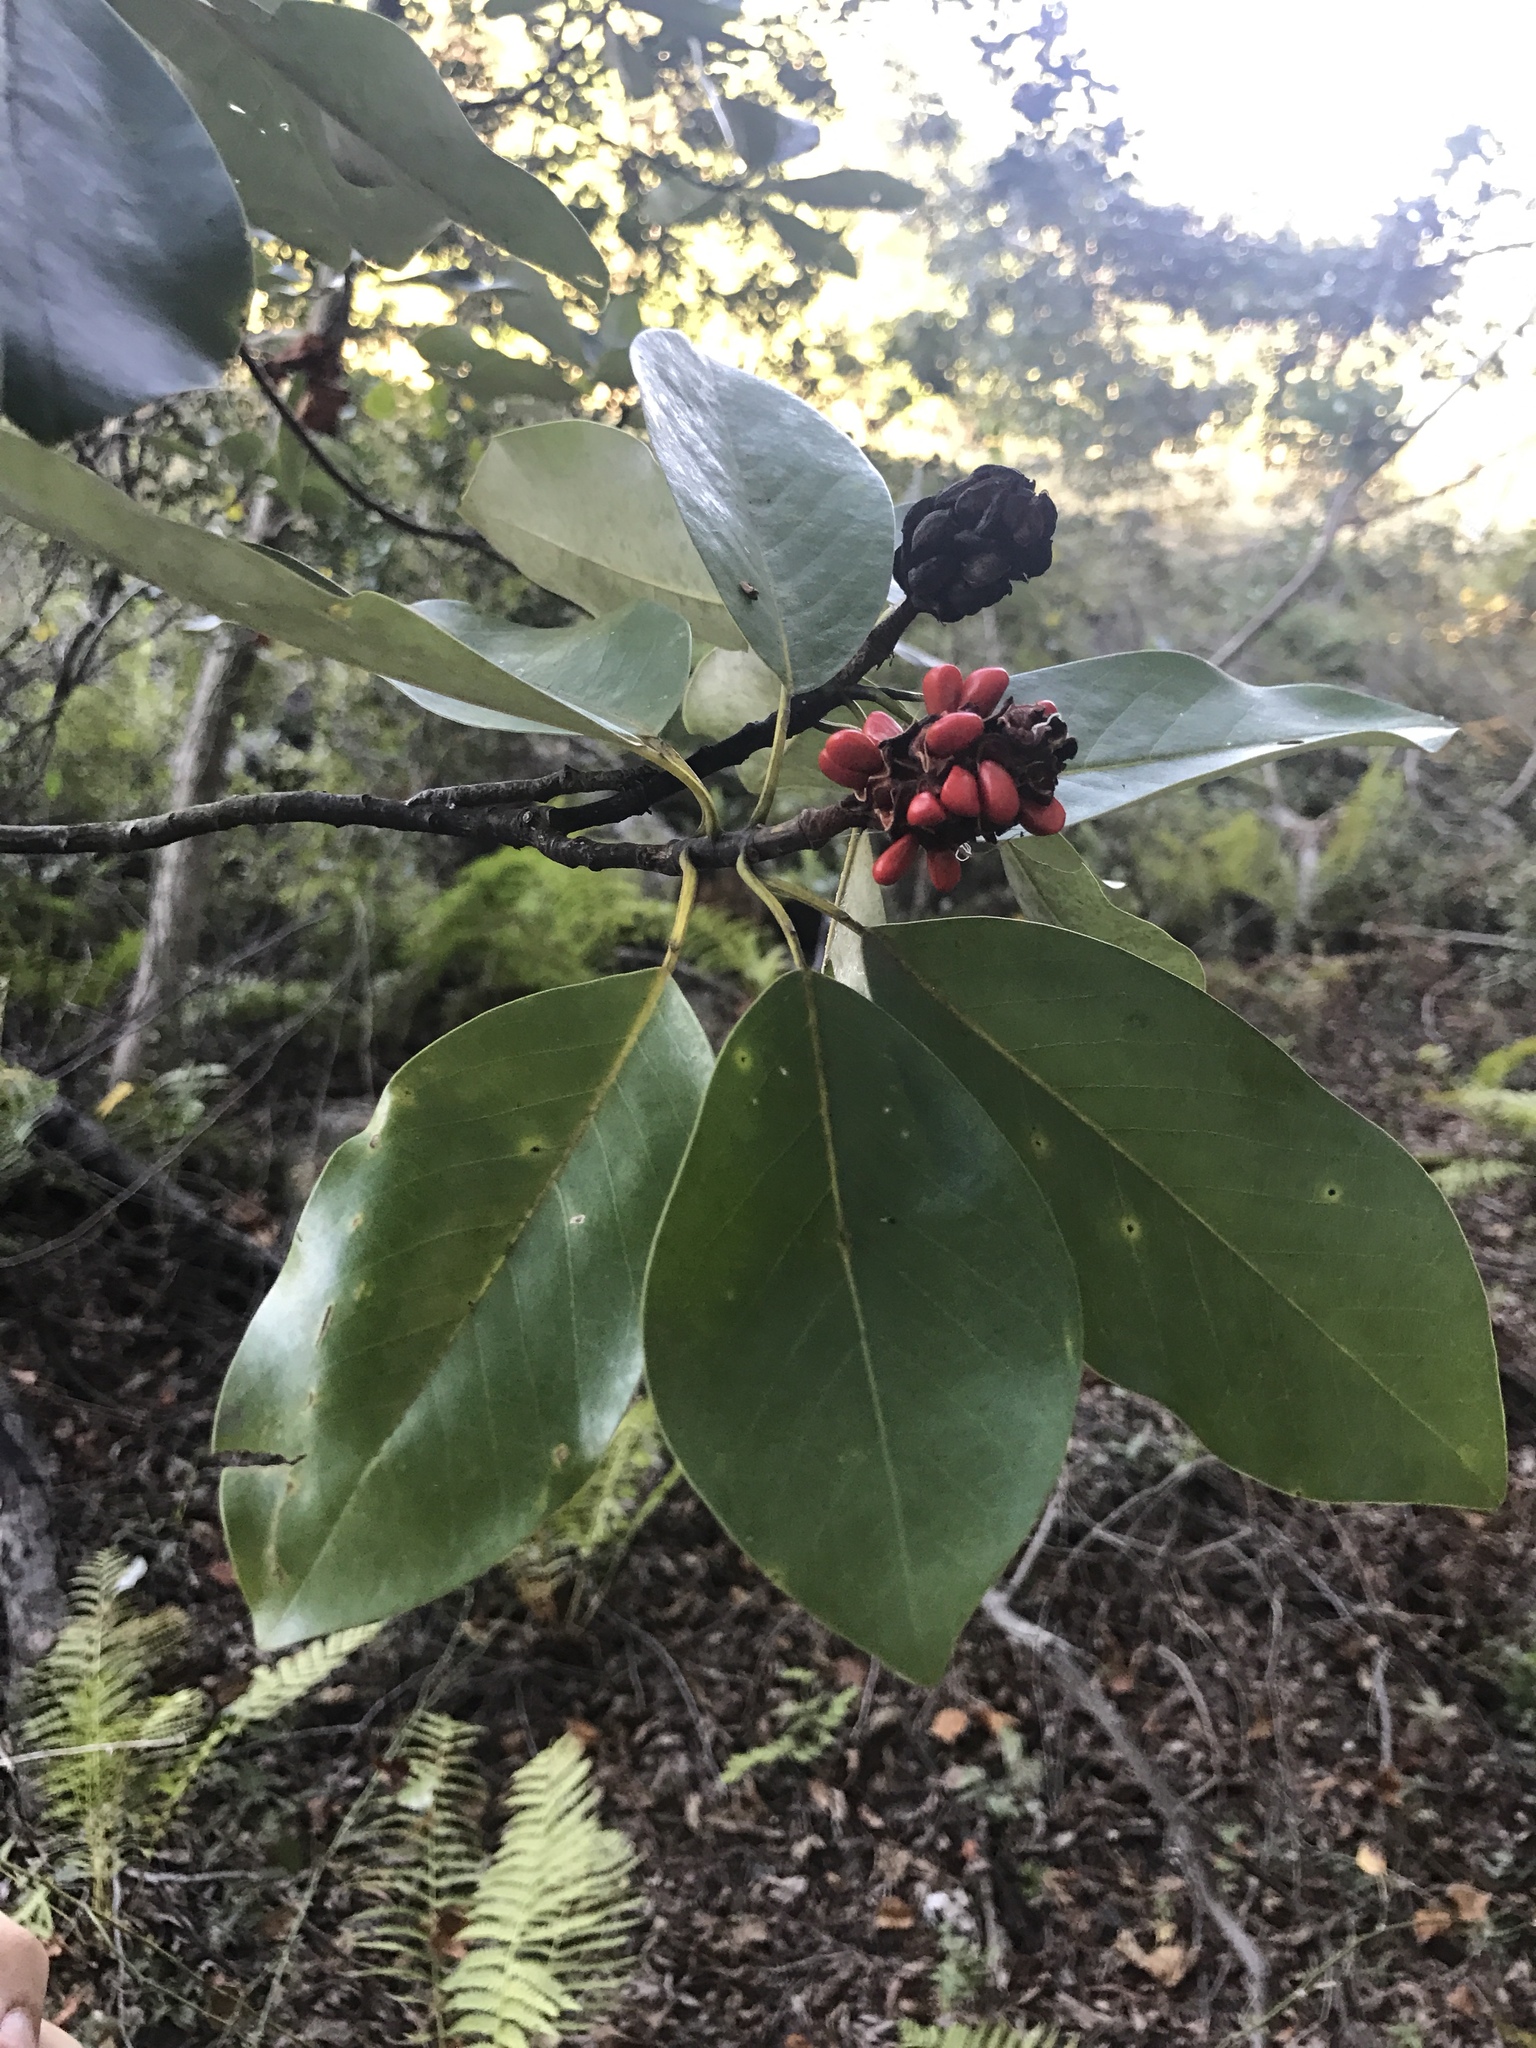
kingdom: Plantae
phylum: Tracheophyta
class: Magnoliopsida
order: Magnoliales
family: Magnoliaceae
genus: Magnolia
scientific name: Magnolia virginiana
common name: Swamp bay
